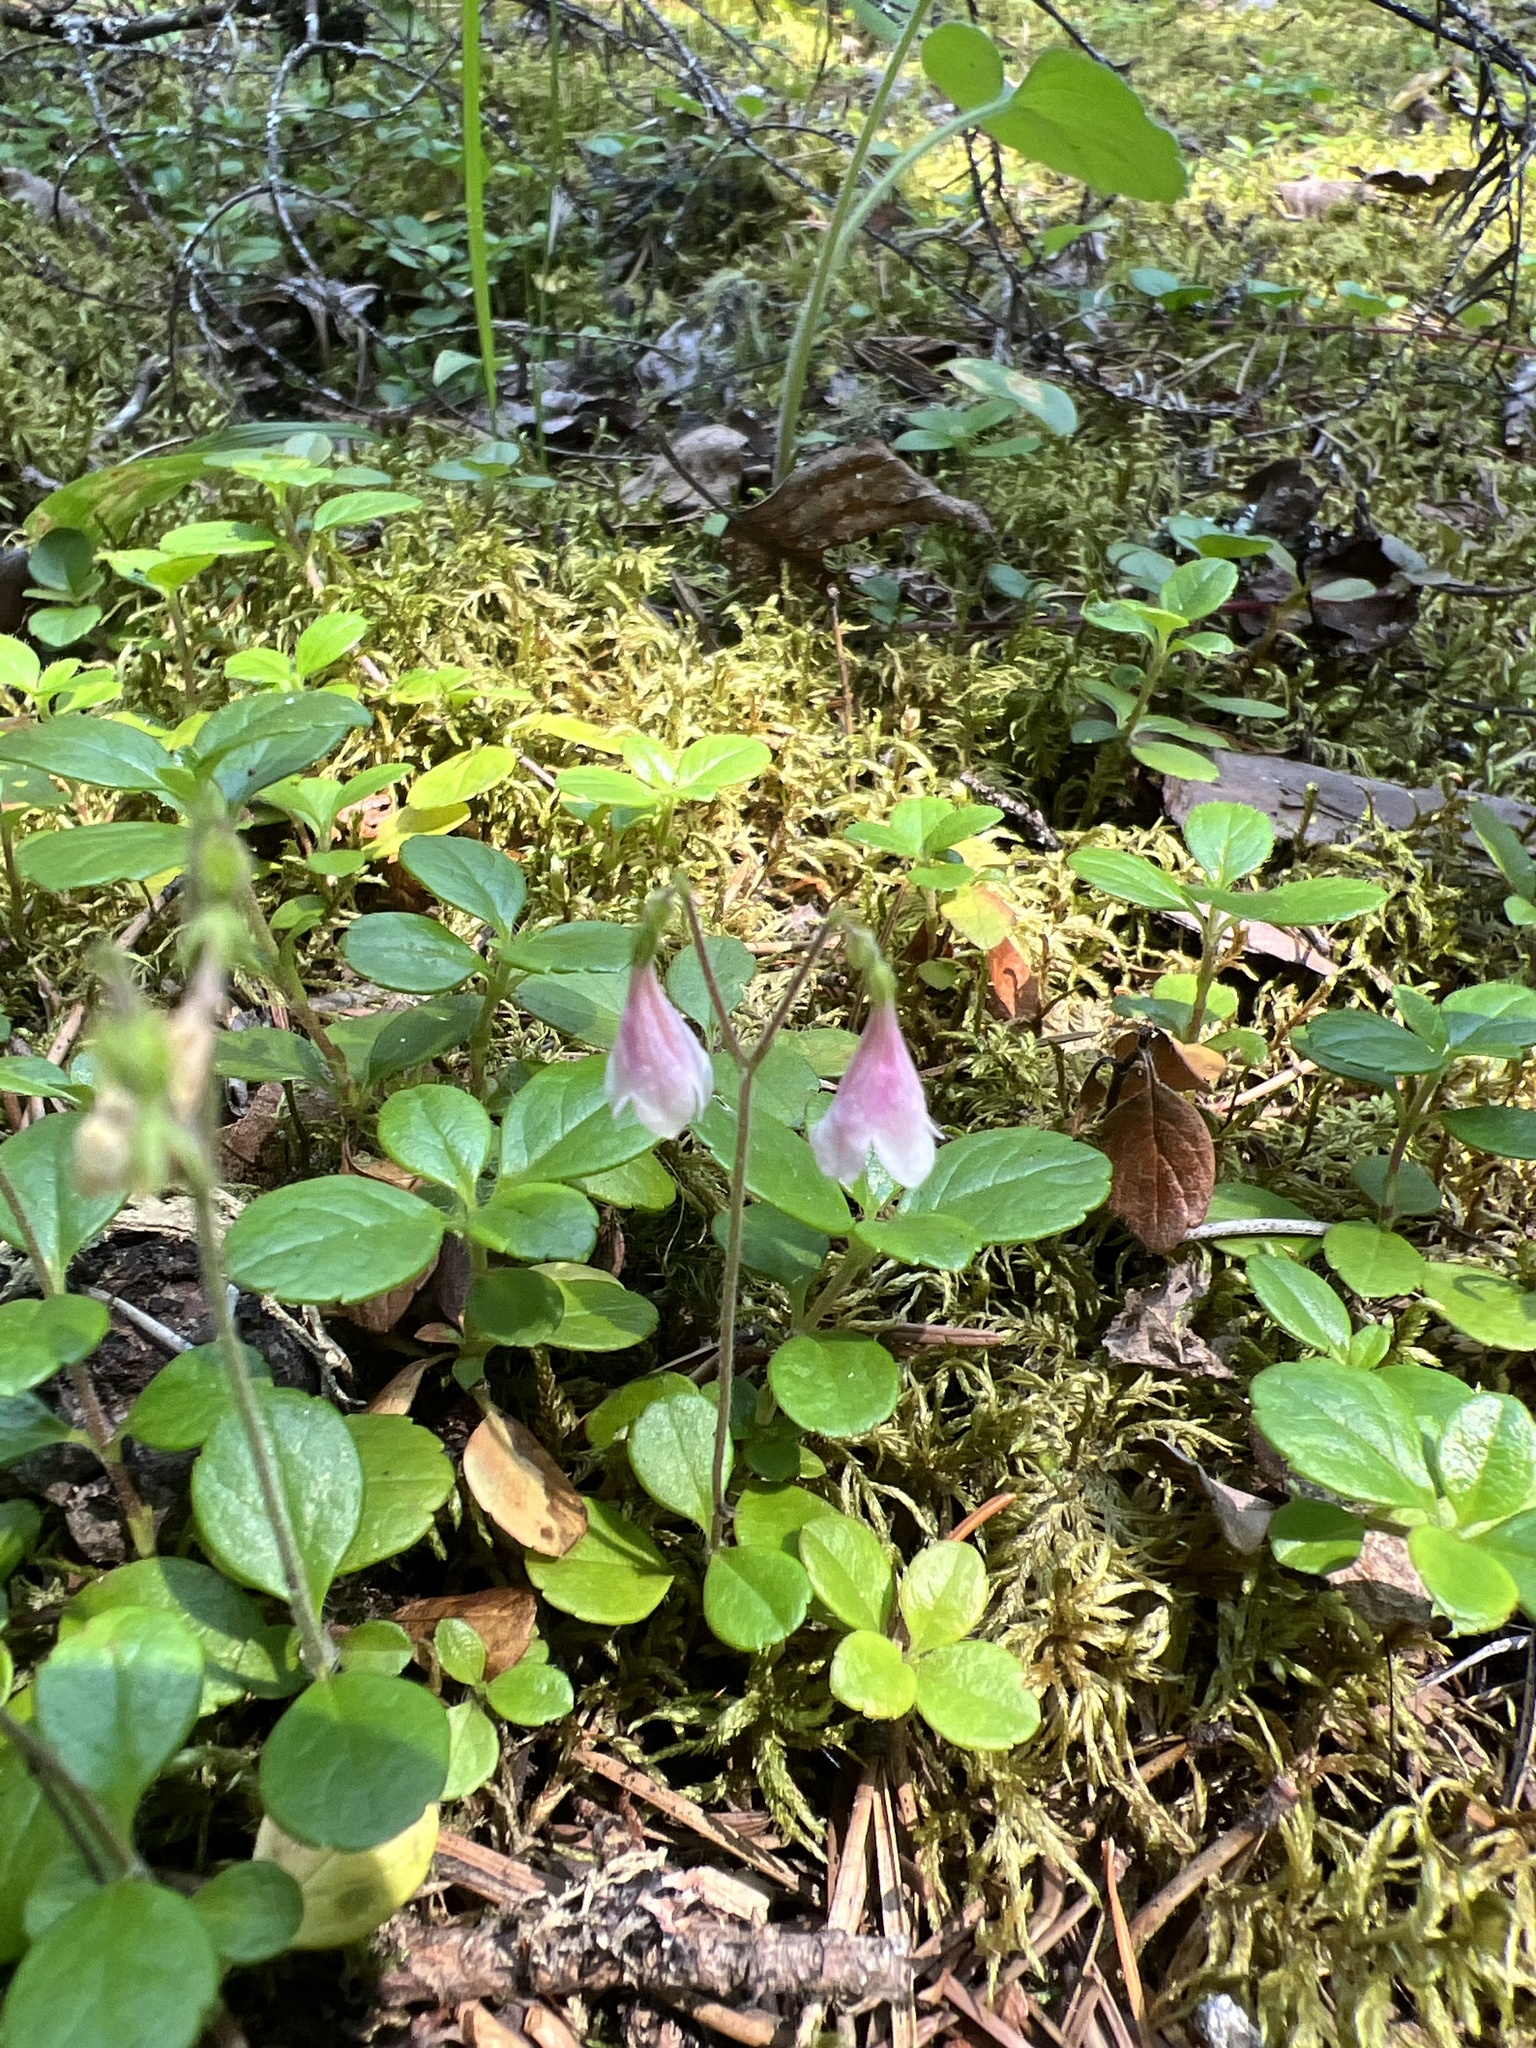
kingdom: Plantae
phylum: Tracheophyta
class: Magnoliopsida
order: Dipsacales
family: Caprifoliaceae
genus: Linnaea
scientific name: Linnaea borealis
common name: Twinflower
